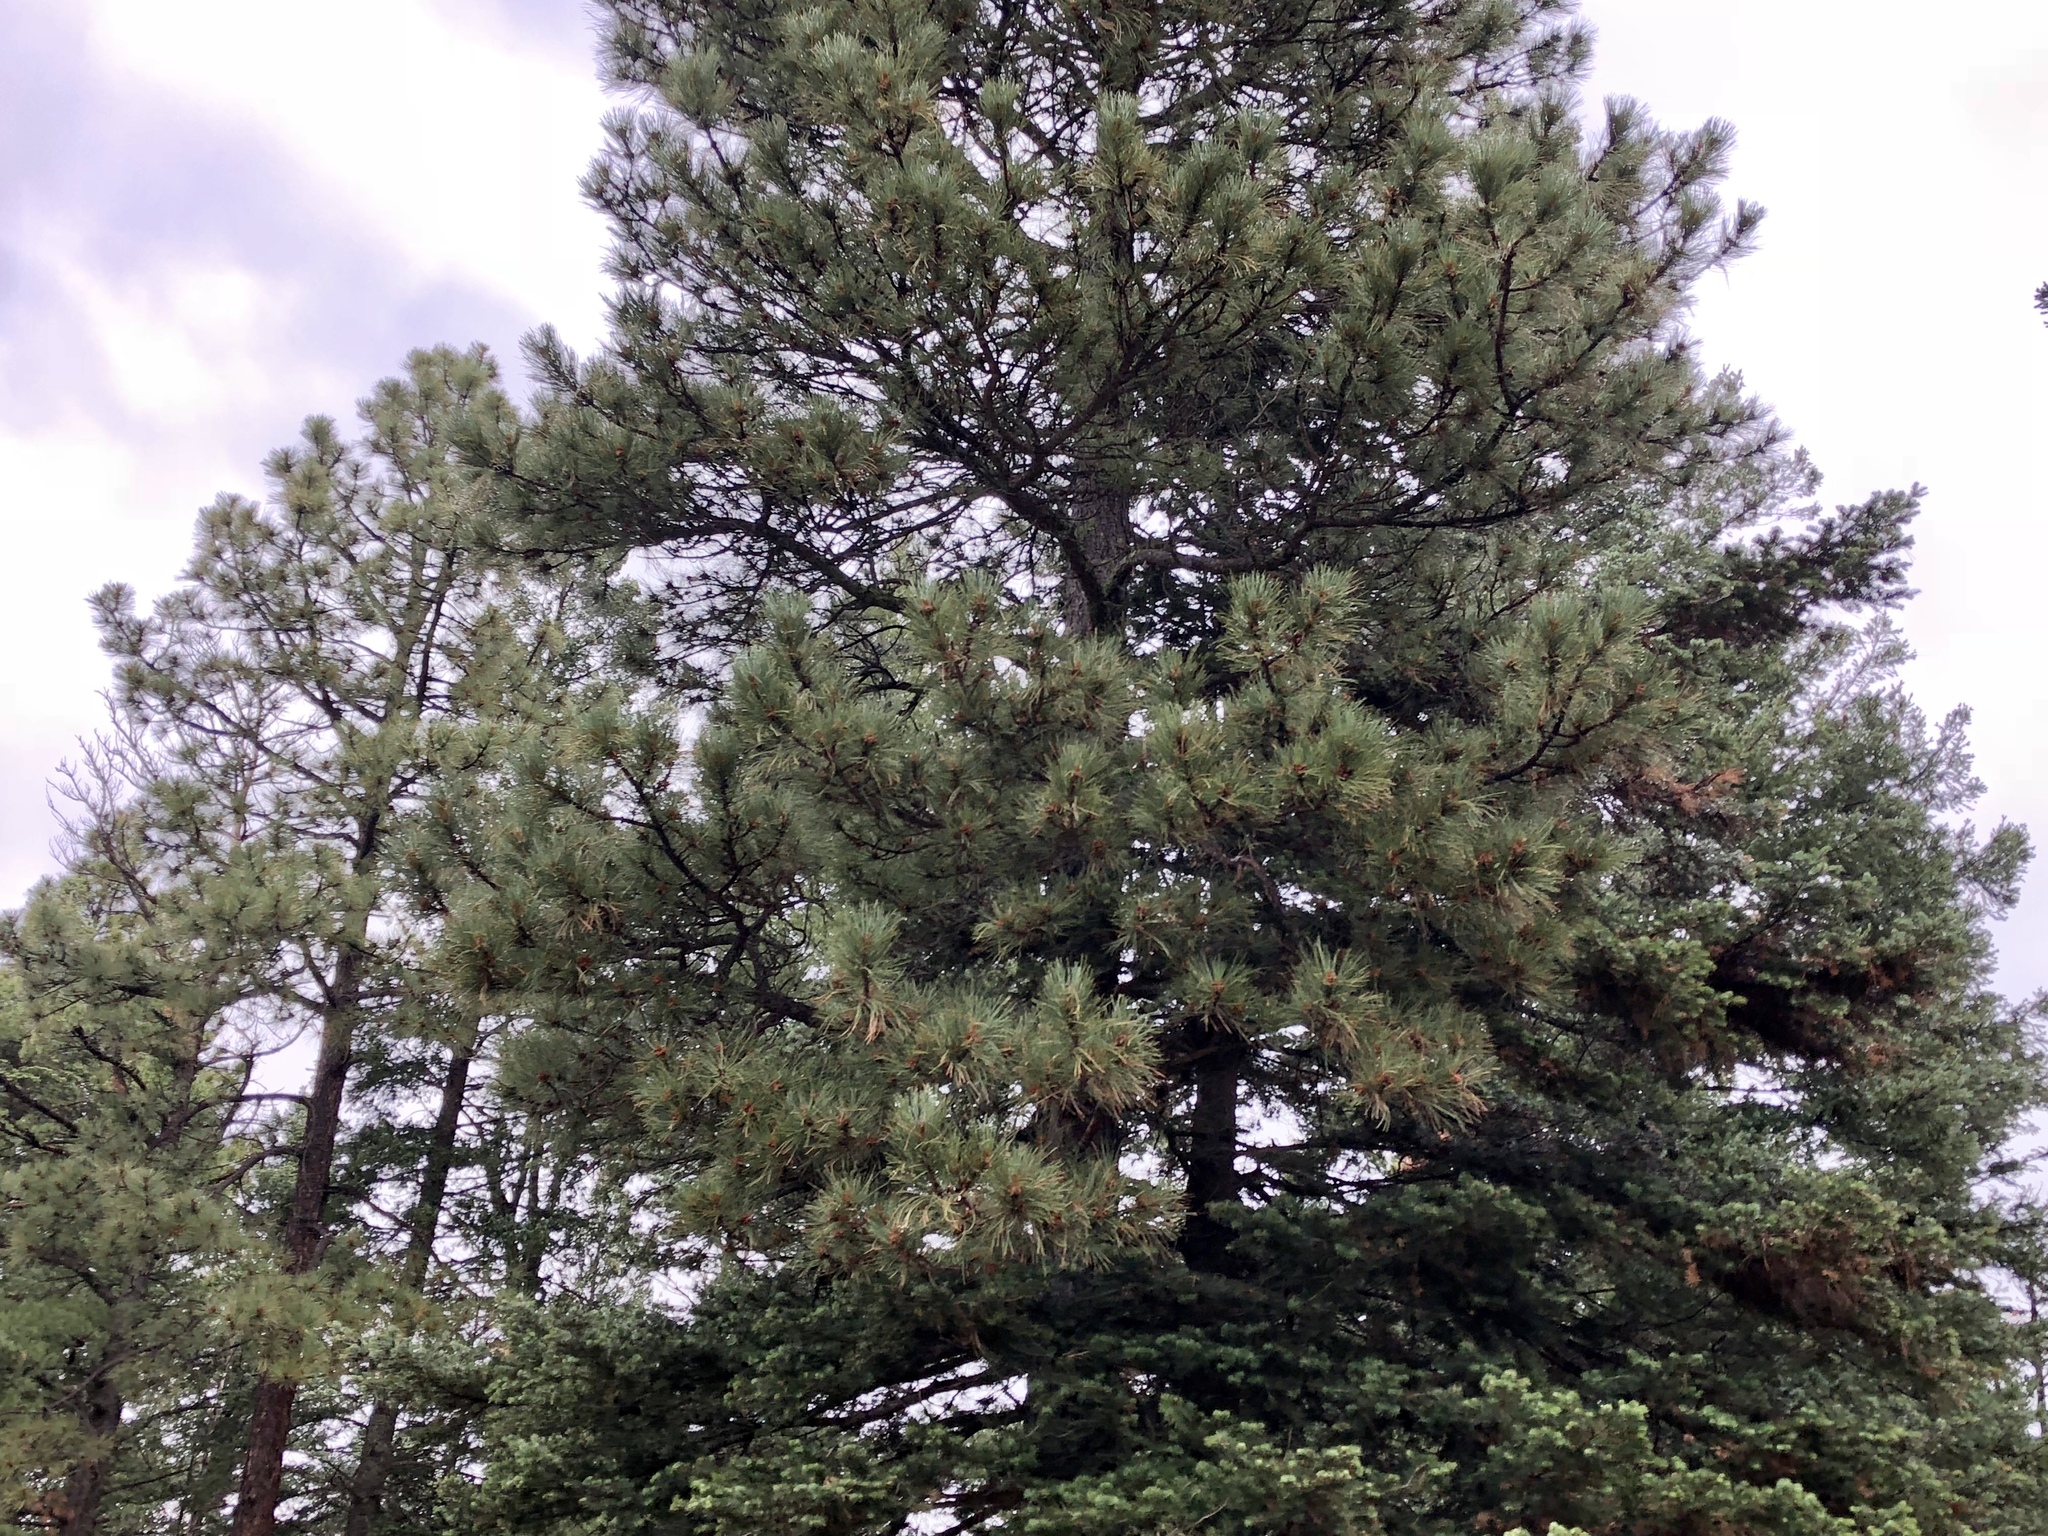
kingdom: Plantae
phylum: Tracheophyta
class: Pinopsida
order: Pinales
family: Pinaceae
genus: Pinus
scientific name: Pinus ponderosa
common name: Western yellow-pine
